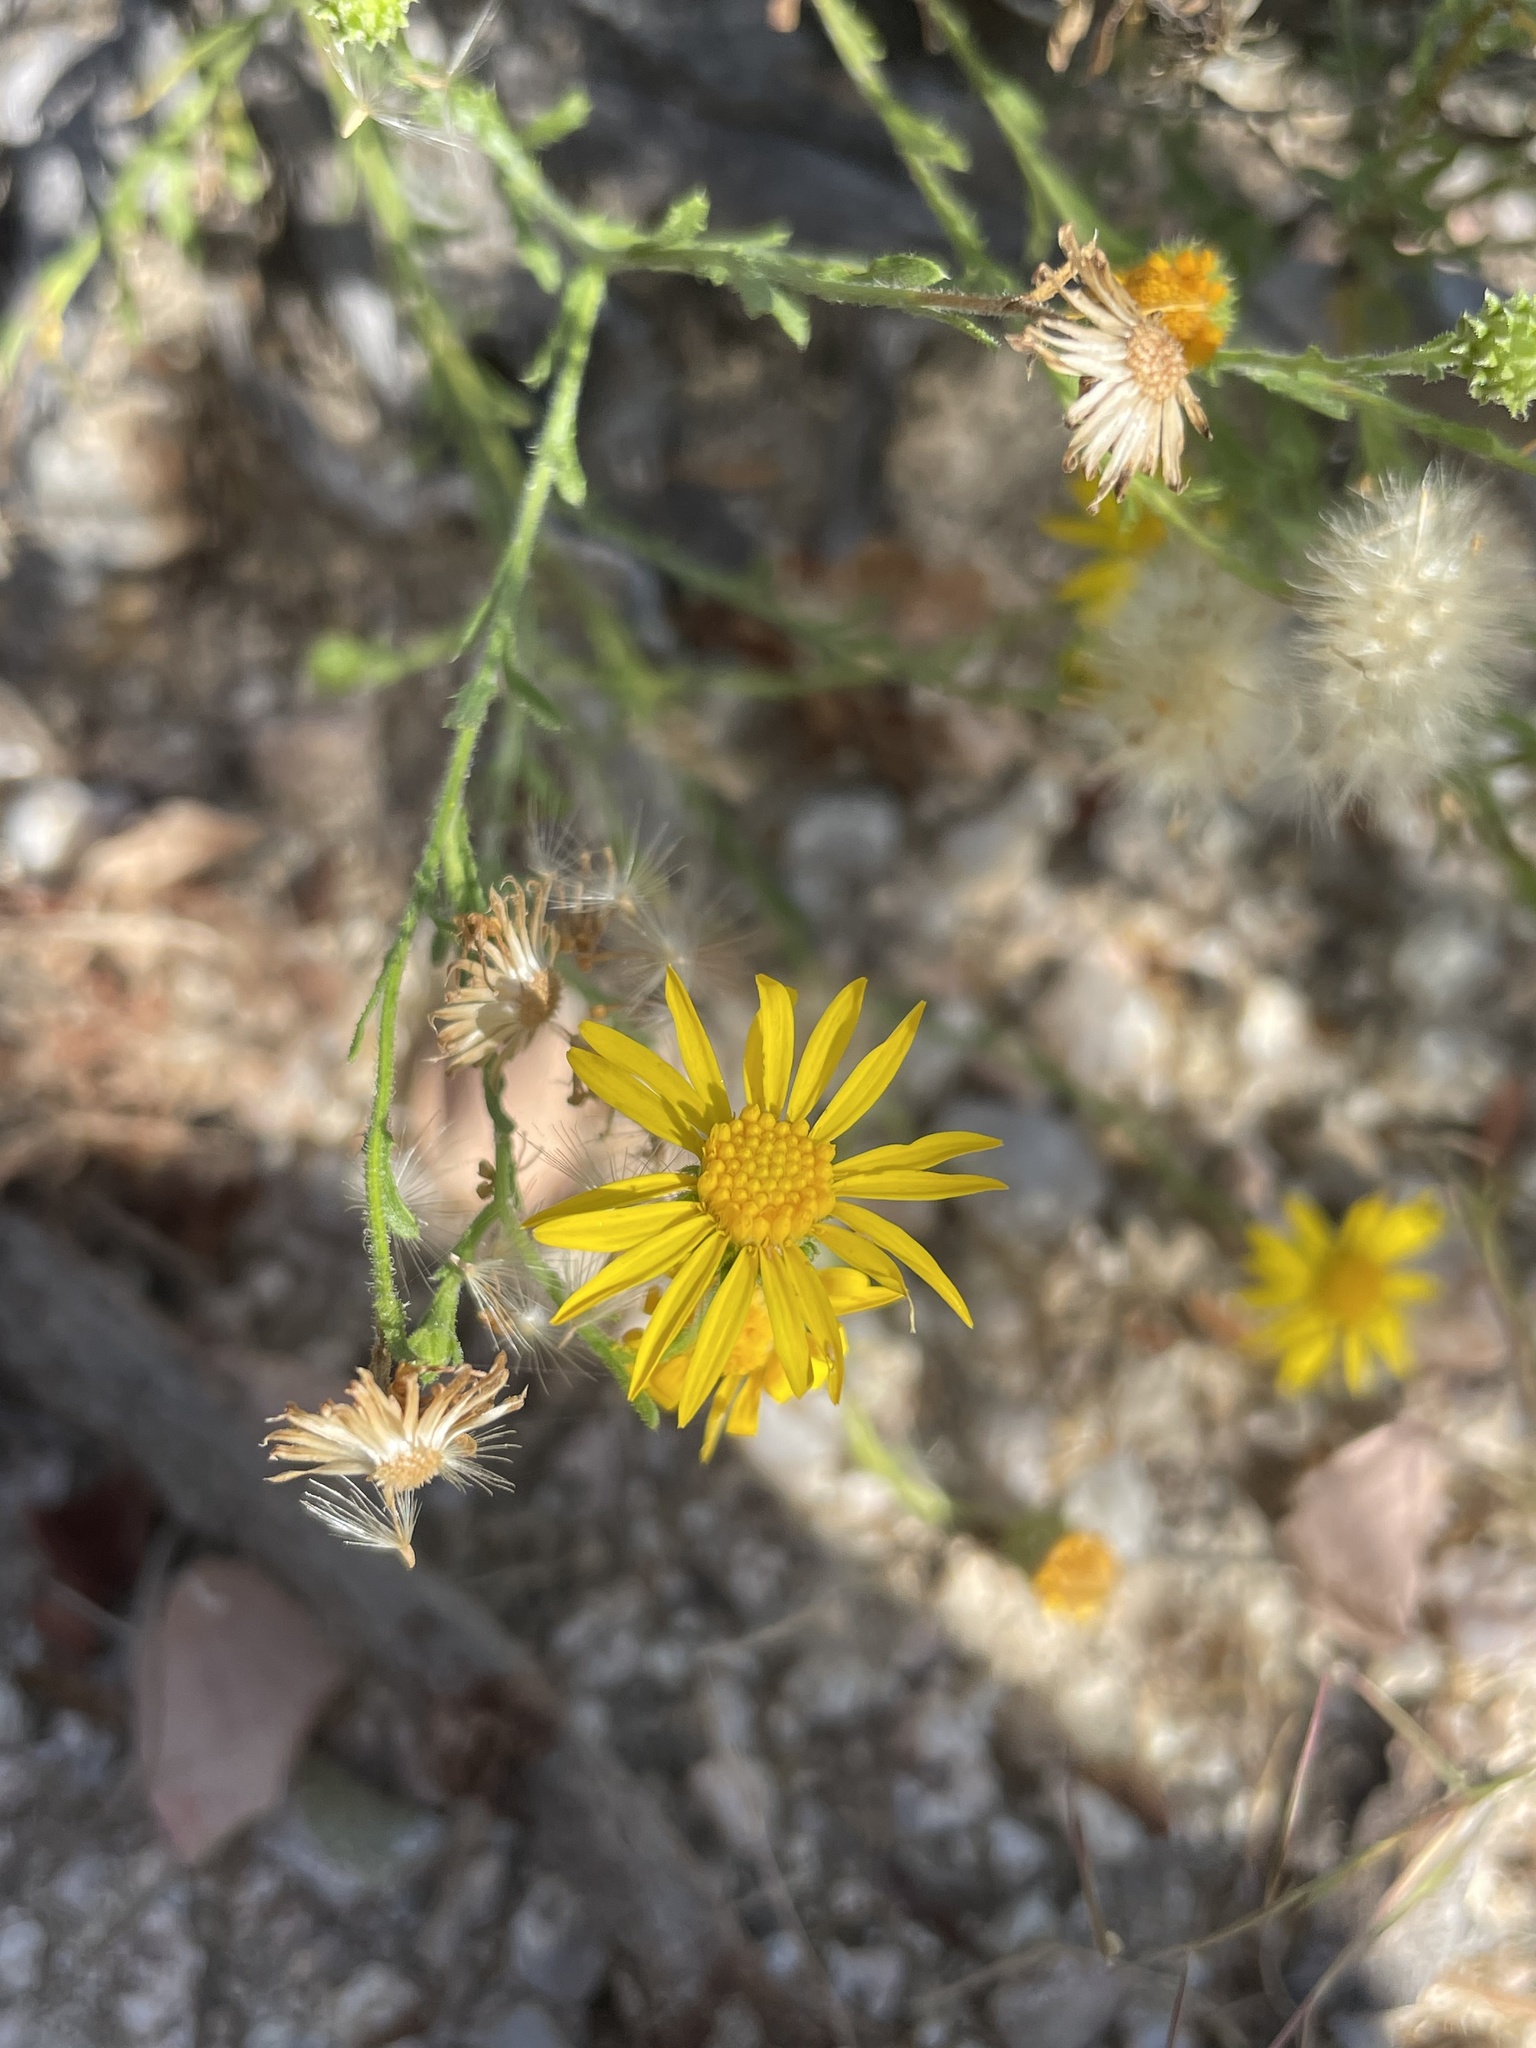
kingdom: Plantae
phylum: Tracheophyta
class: Magnoliopsida
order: Asterales
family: Asteraceae
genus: Xanthisma
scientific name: Xanthisma scabrellum
